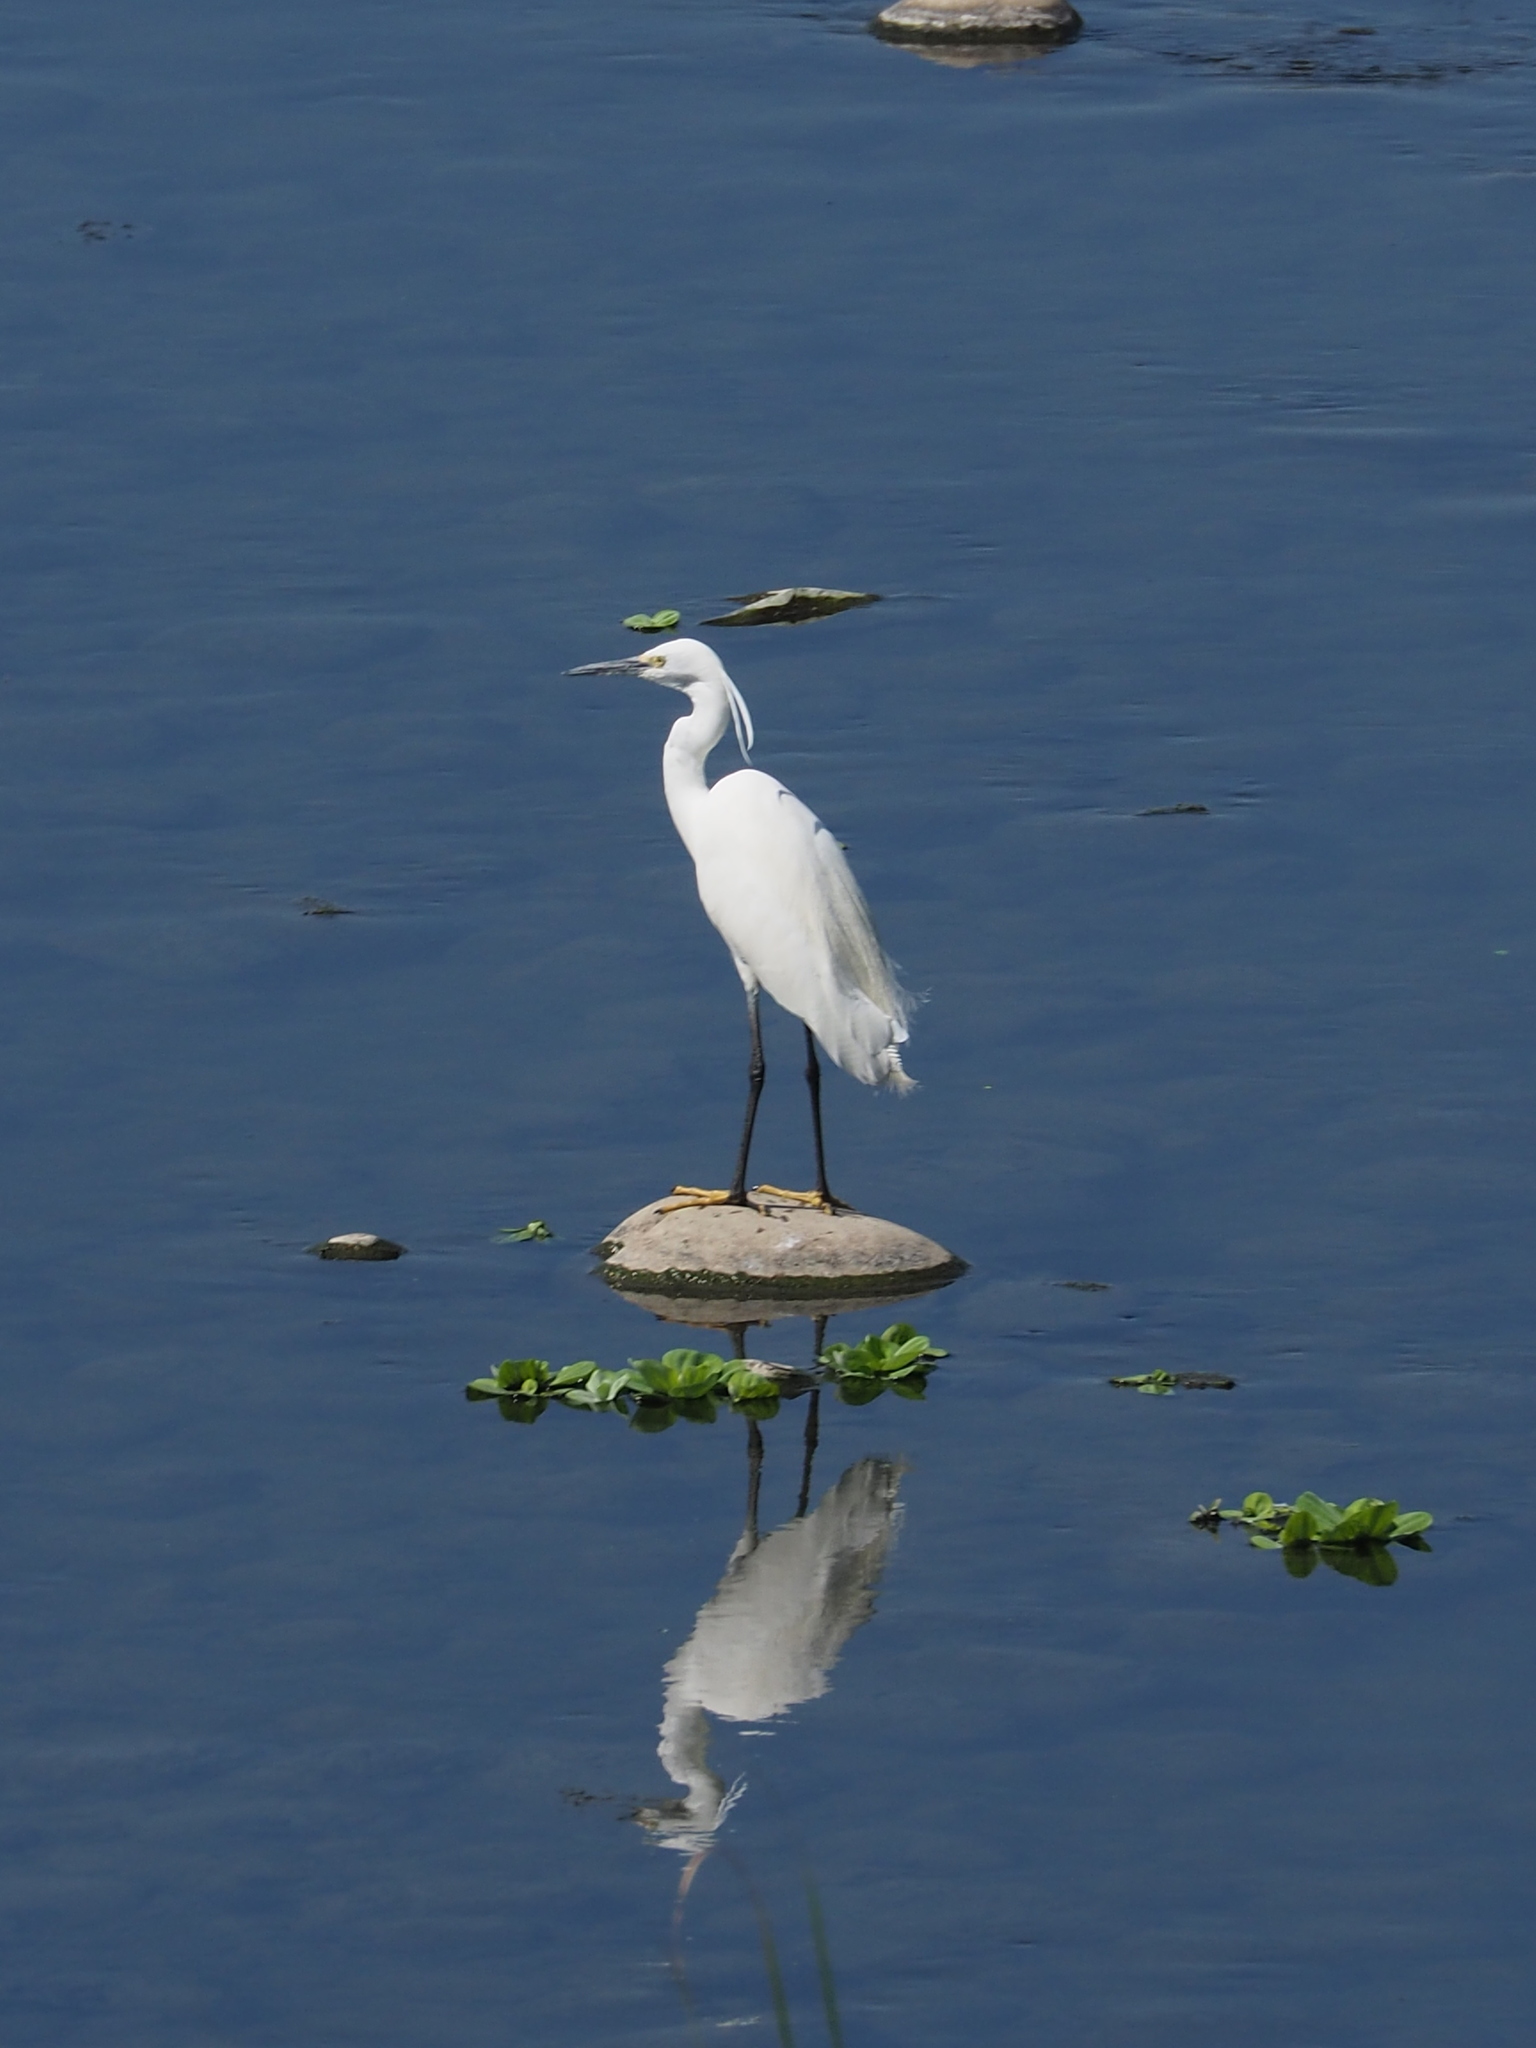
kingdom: Animalia
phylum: Chordata
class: Aves
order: Pelecaniformes
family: Ardeidae
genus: Egretta
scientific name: Egretta garzetta
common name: Little egret
